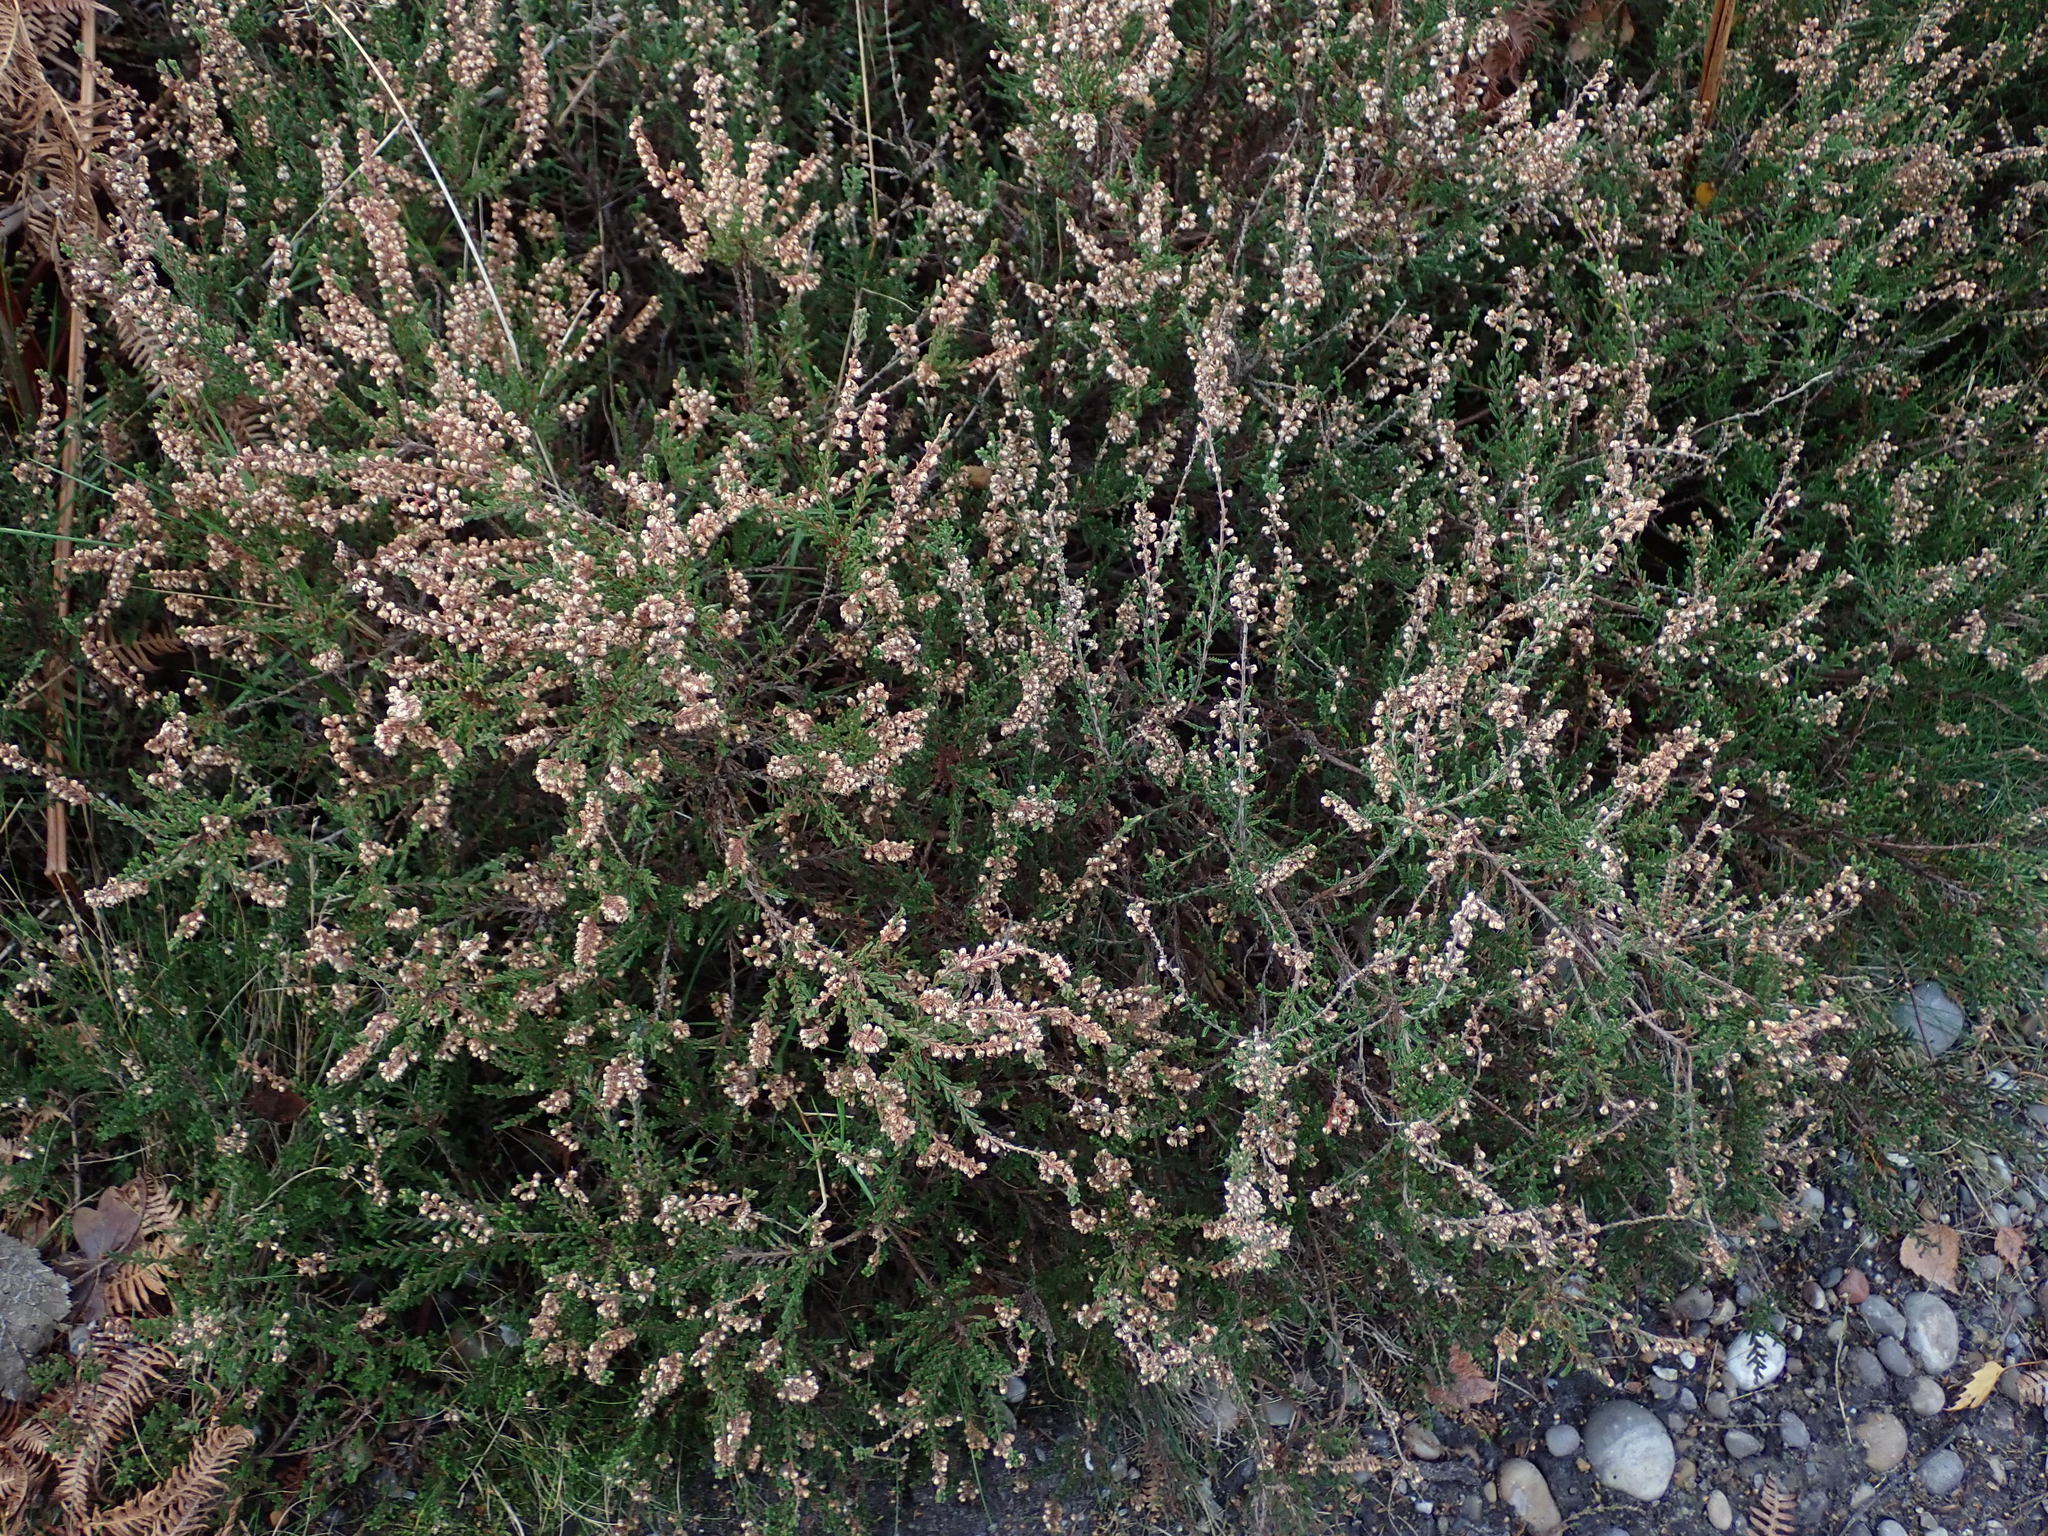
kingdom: Plantae
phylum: Tracheophyta
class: Magnoliopsida
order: Ericales
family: Ericaceae
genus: Calluna
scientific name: Calluna vulgaris
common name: Heather
